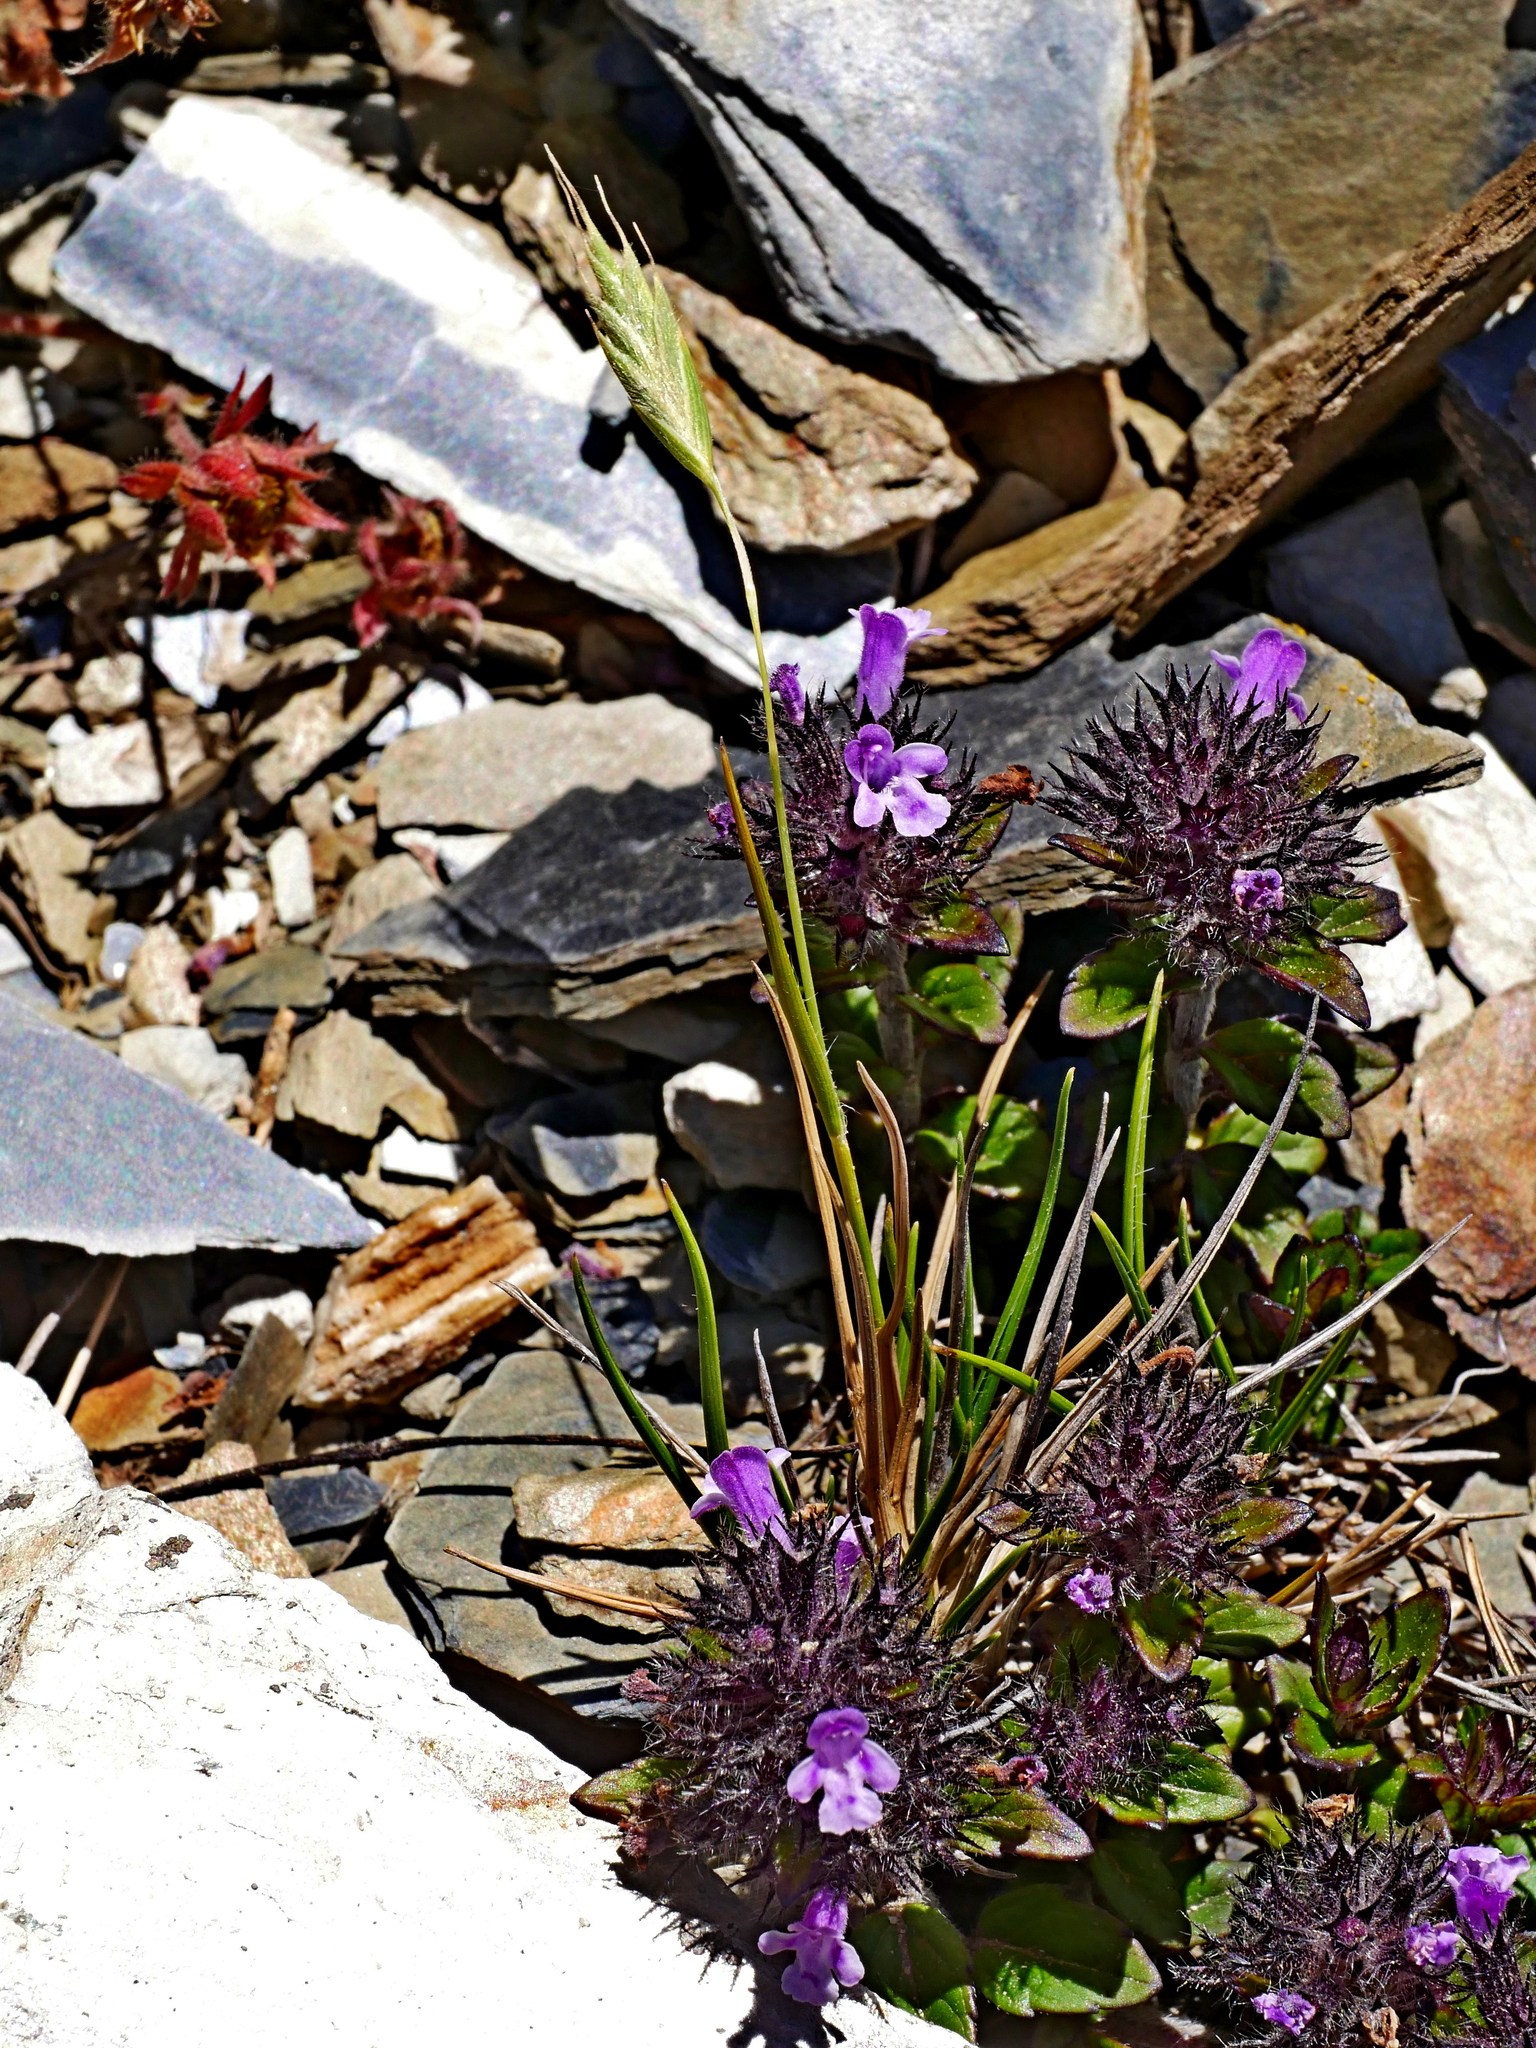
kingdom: Plantae
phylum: Tracheophyta
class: Liliopsida
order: Poales
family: Poaceae
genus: Brachypodium
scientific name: Brachypodium kawakamii
